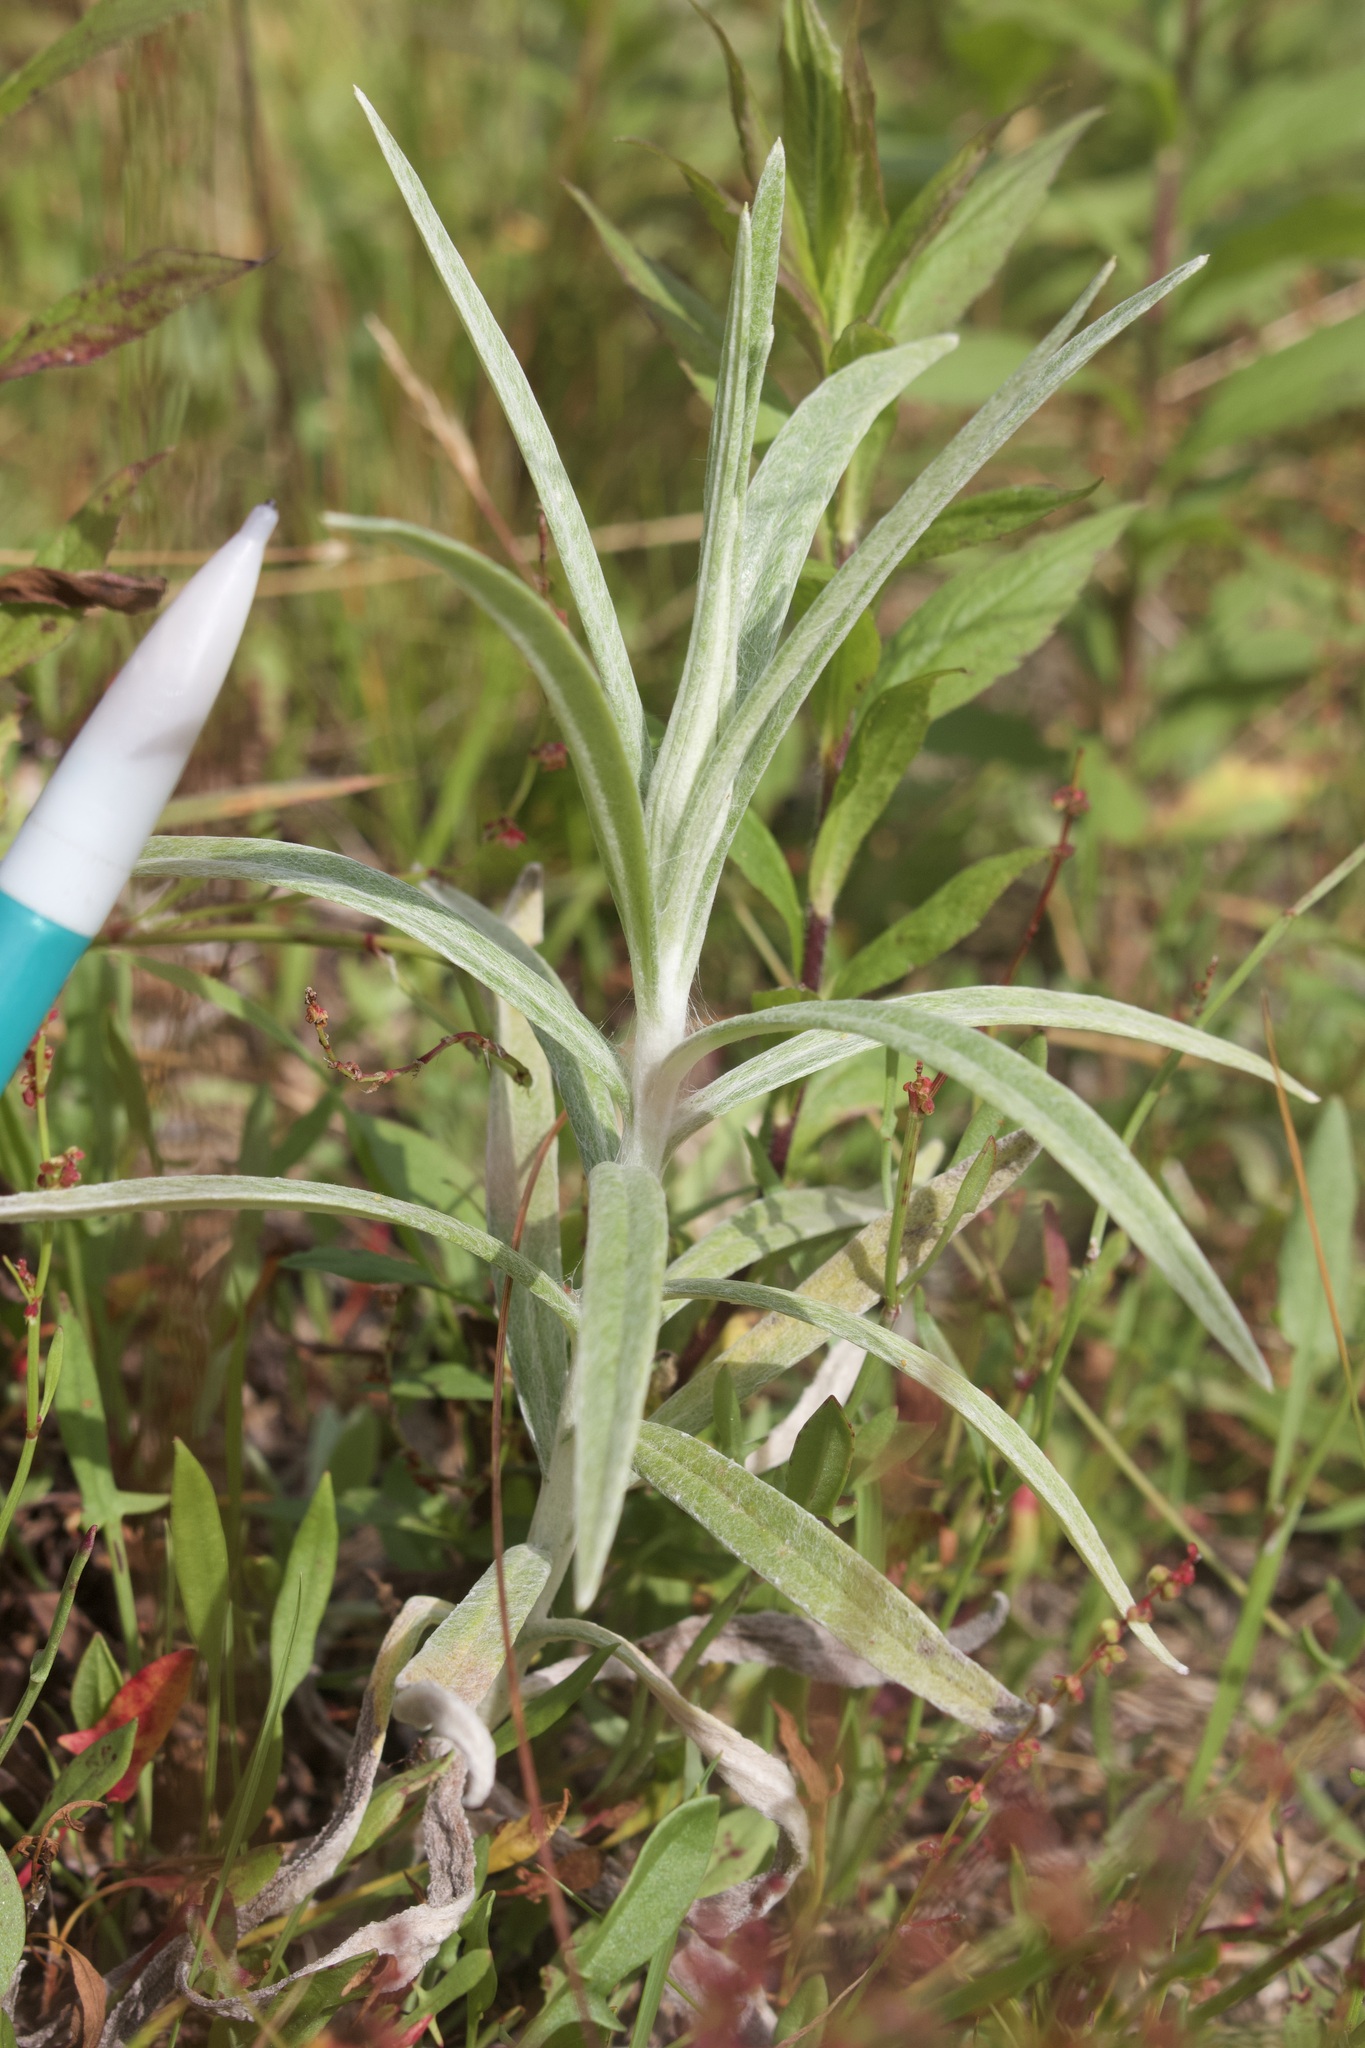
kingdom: Plantae
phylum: Tracheophyta
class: Magnoliopsida
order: Asterales
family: Asteraceae
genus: Anaphalis
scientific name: Anaphalis margaritacea
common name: Pearly everlasting
